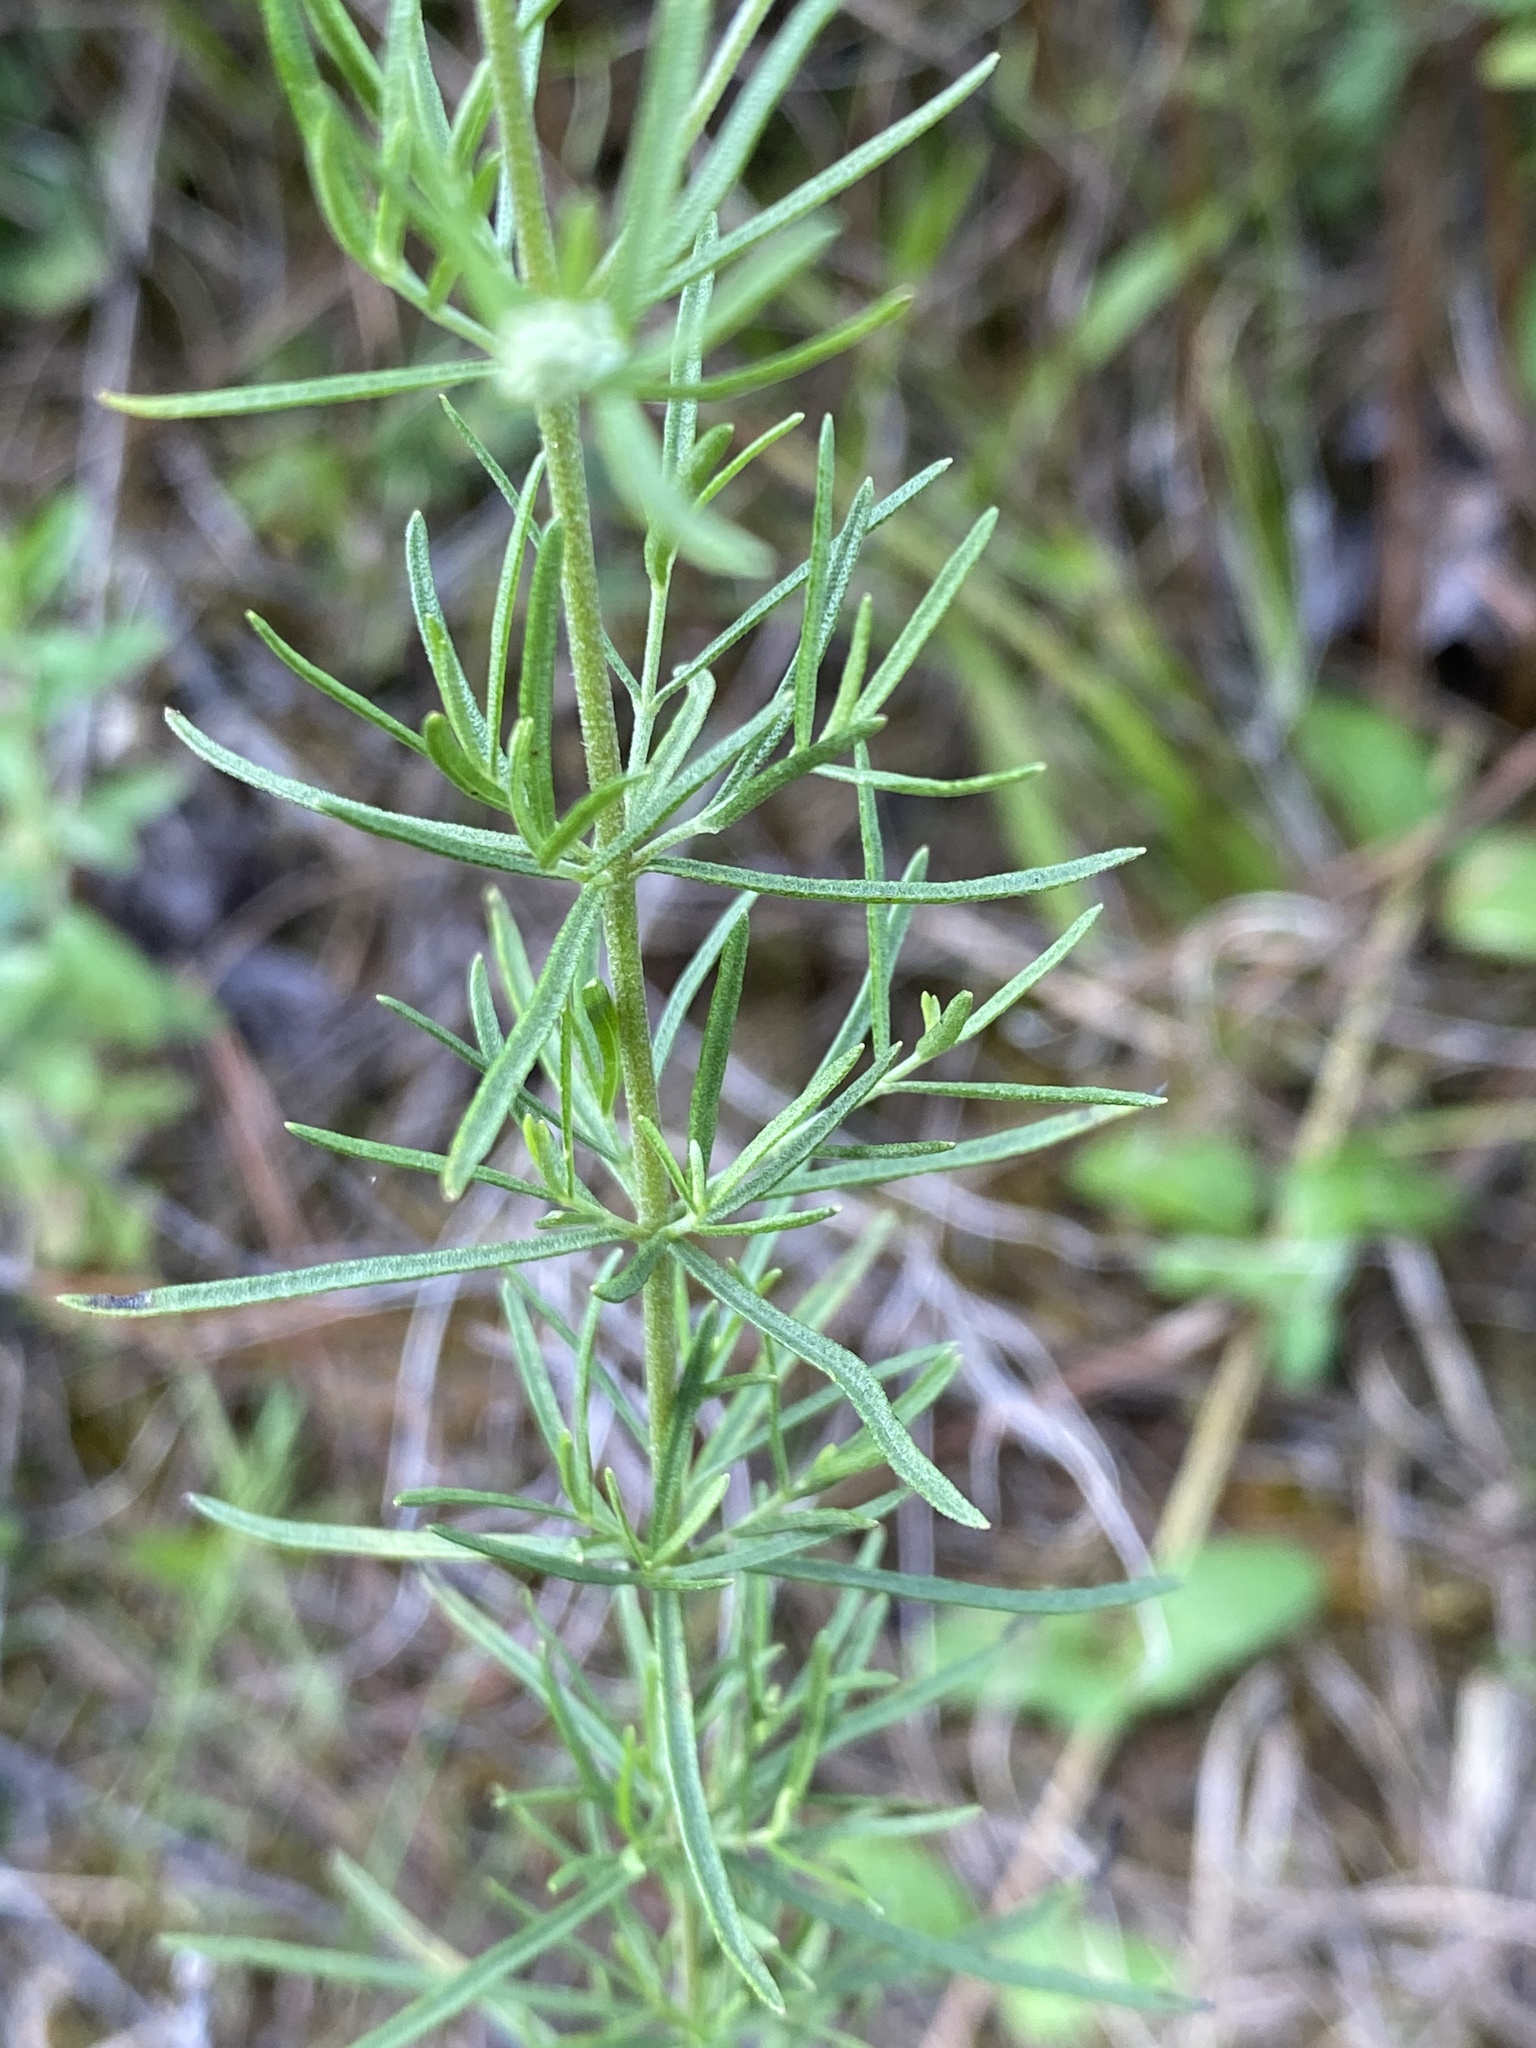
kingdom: Plantae
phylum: Tracheophyta
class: Magnoliopsida
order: Asterales
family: Asteraceae
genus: Eupatorium
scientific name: Eupatorium hyssopifolium
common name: Hyssop-leaf thoroughwort
